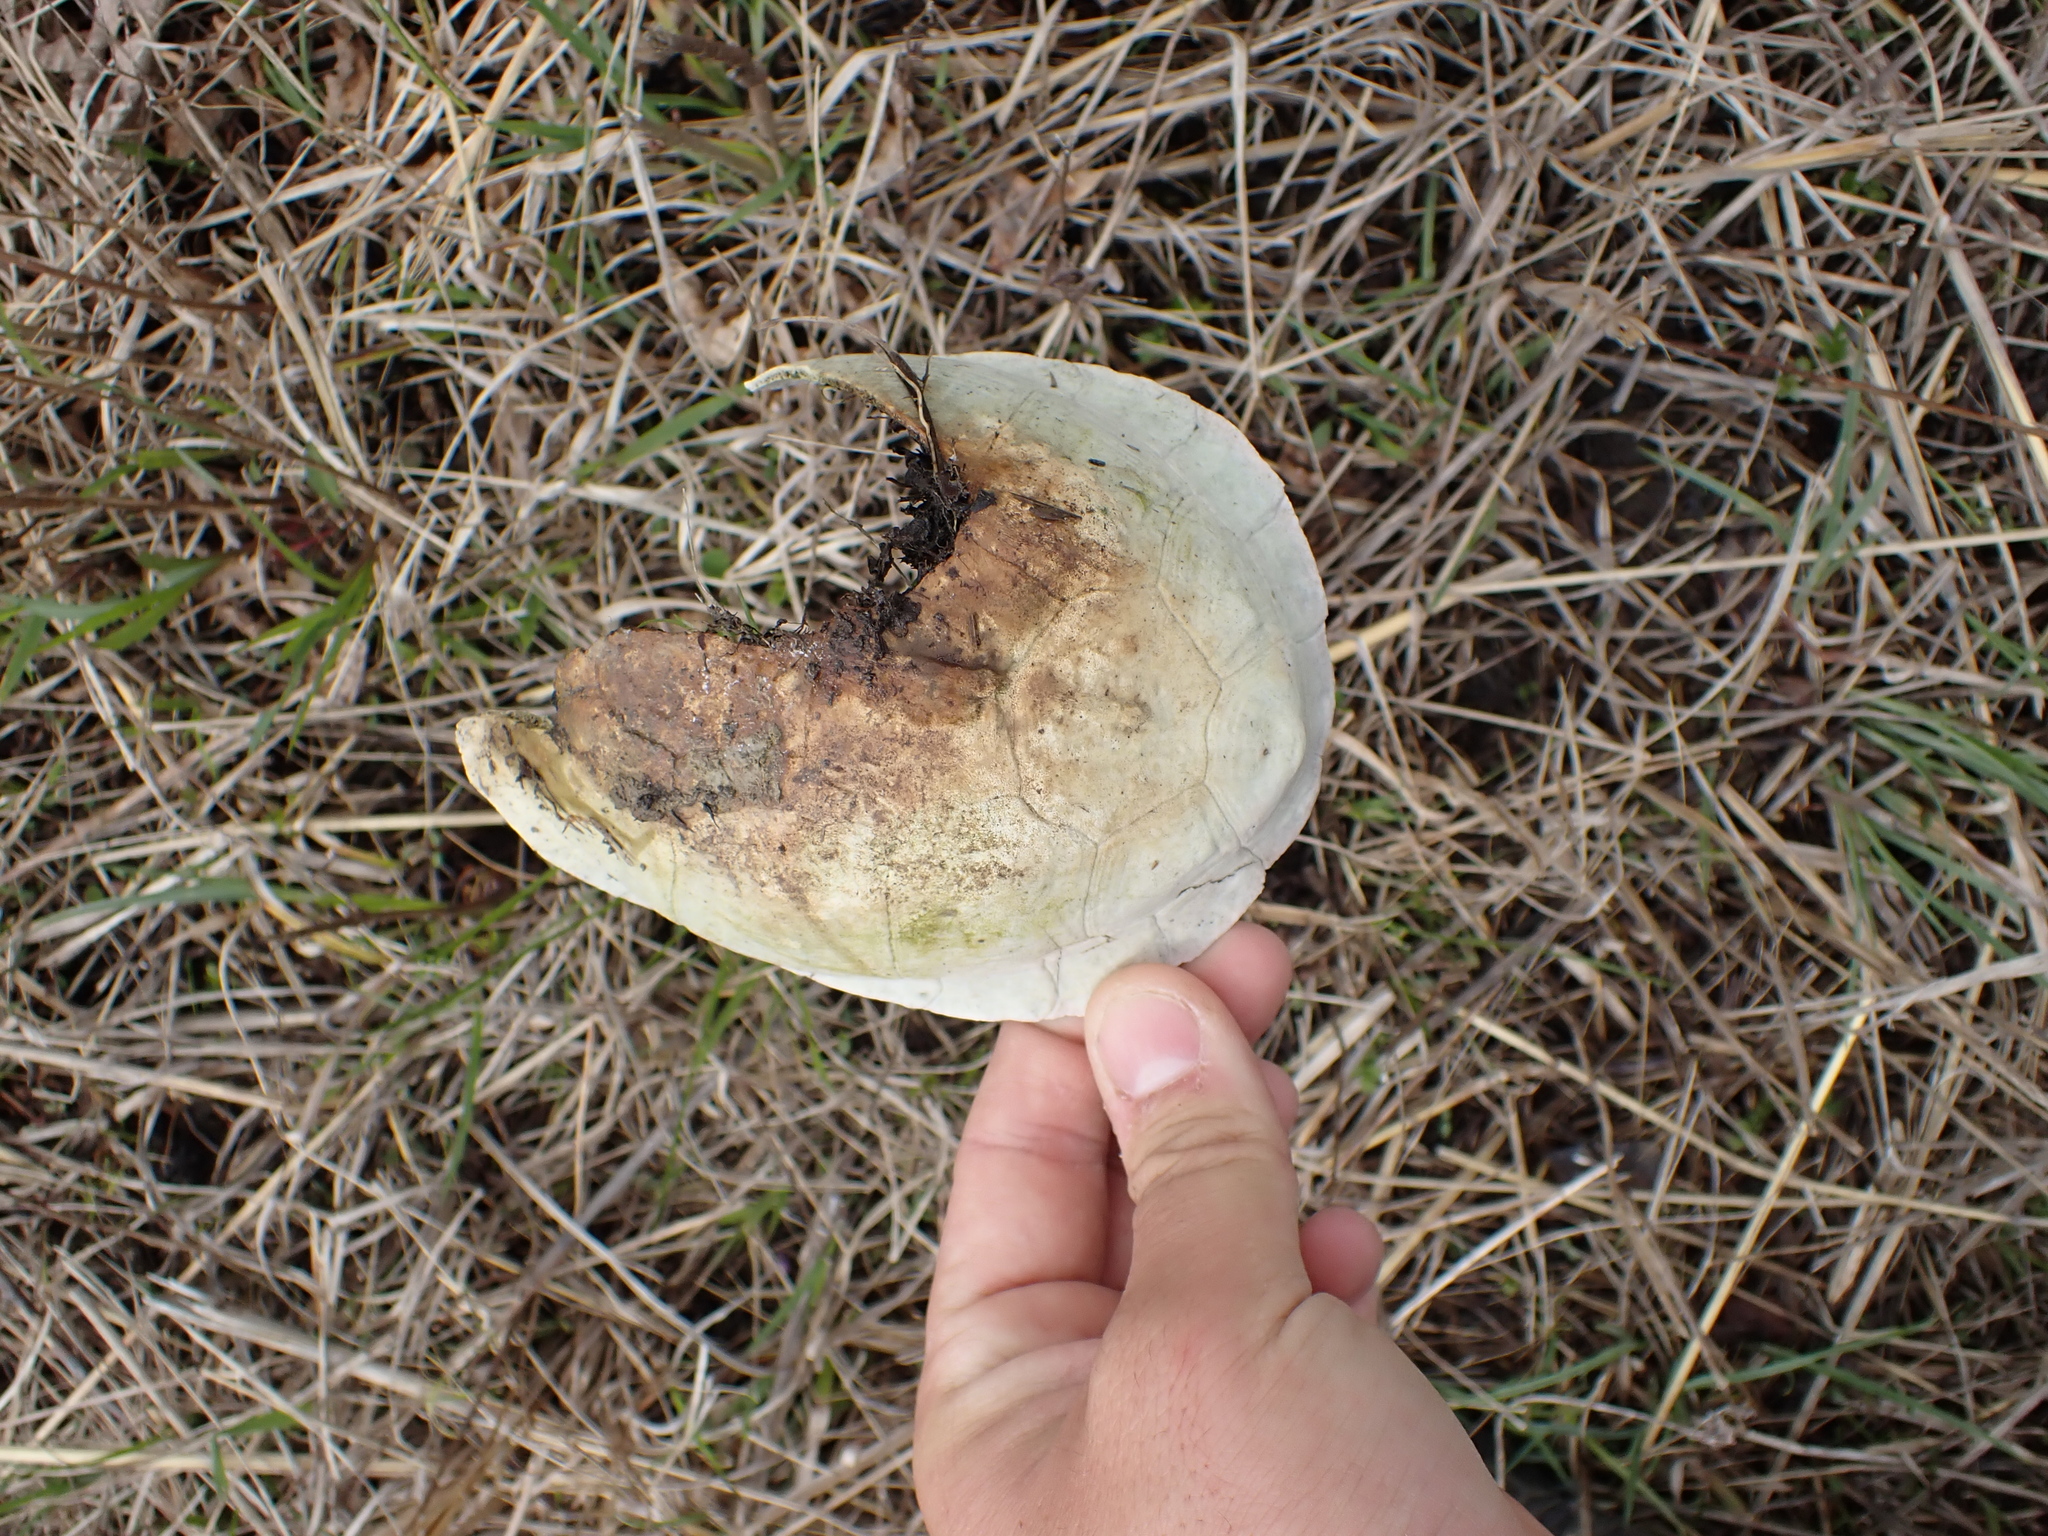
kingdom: Animalia
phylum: Chordata
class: Testudines
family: Emydidae
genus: Terrapene
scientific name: Terrapene carolina
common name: Common box turtle
